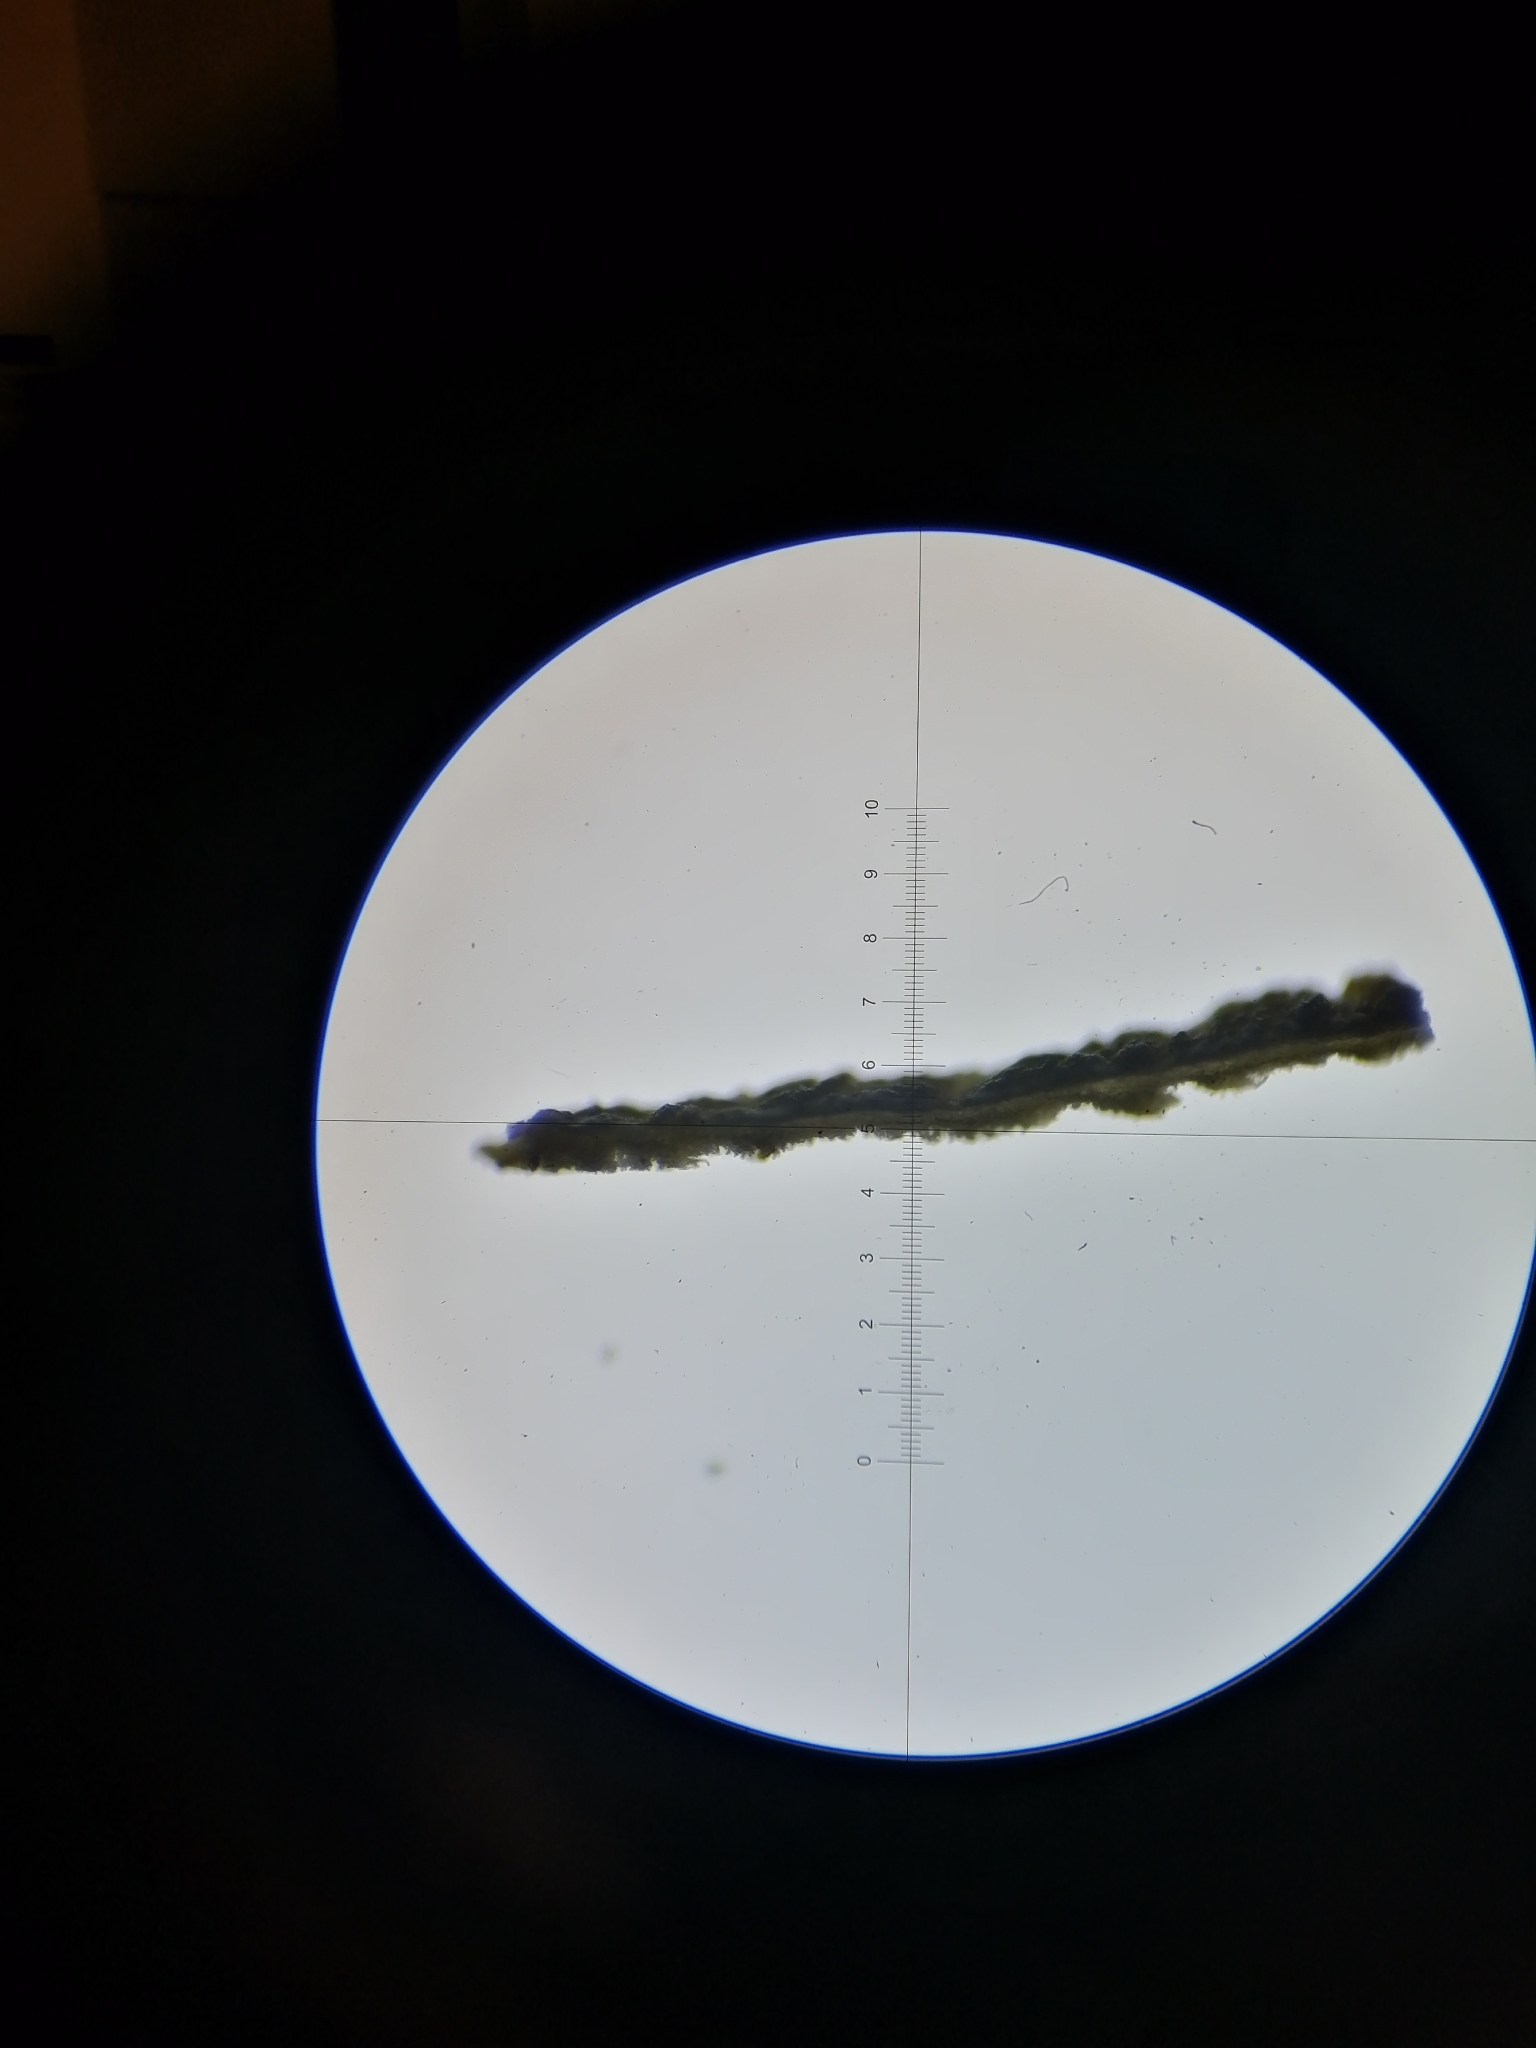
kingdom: Fungi
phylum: Ascomycota
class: Lecanoromycetes
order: Peltigerales
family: Collemataceae
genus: Leptogium
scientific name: Leptogium hibernicum
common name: Hibernia jellyskin
